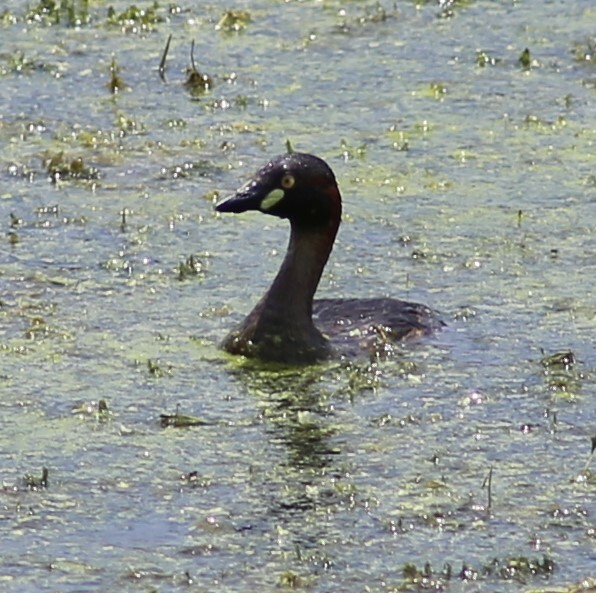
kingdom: Animalia
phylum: Chordata
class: Aves
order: Podicipediformes
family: Podicipedidae
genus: Tachybaptus
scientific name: Tachybaptus novaehollandiae
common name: Australasian grebe
